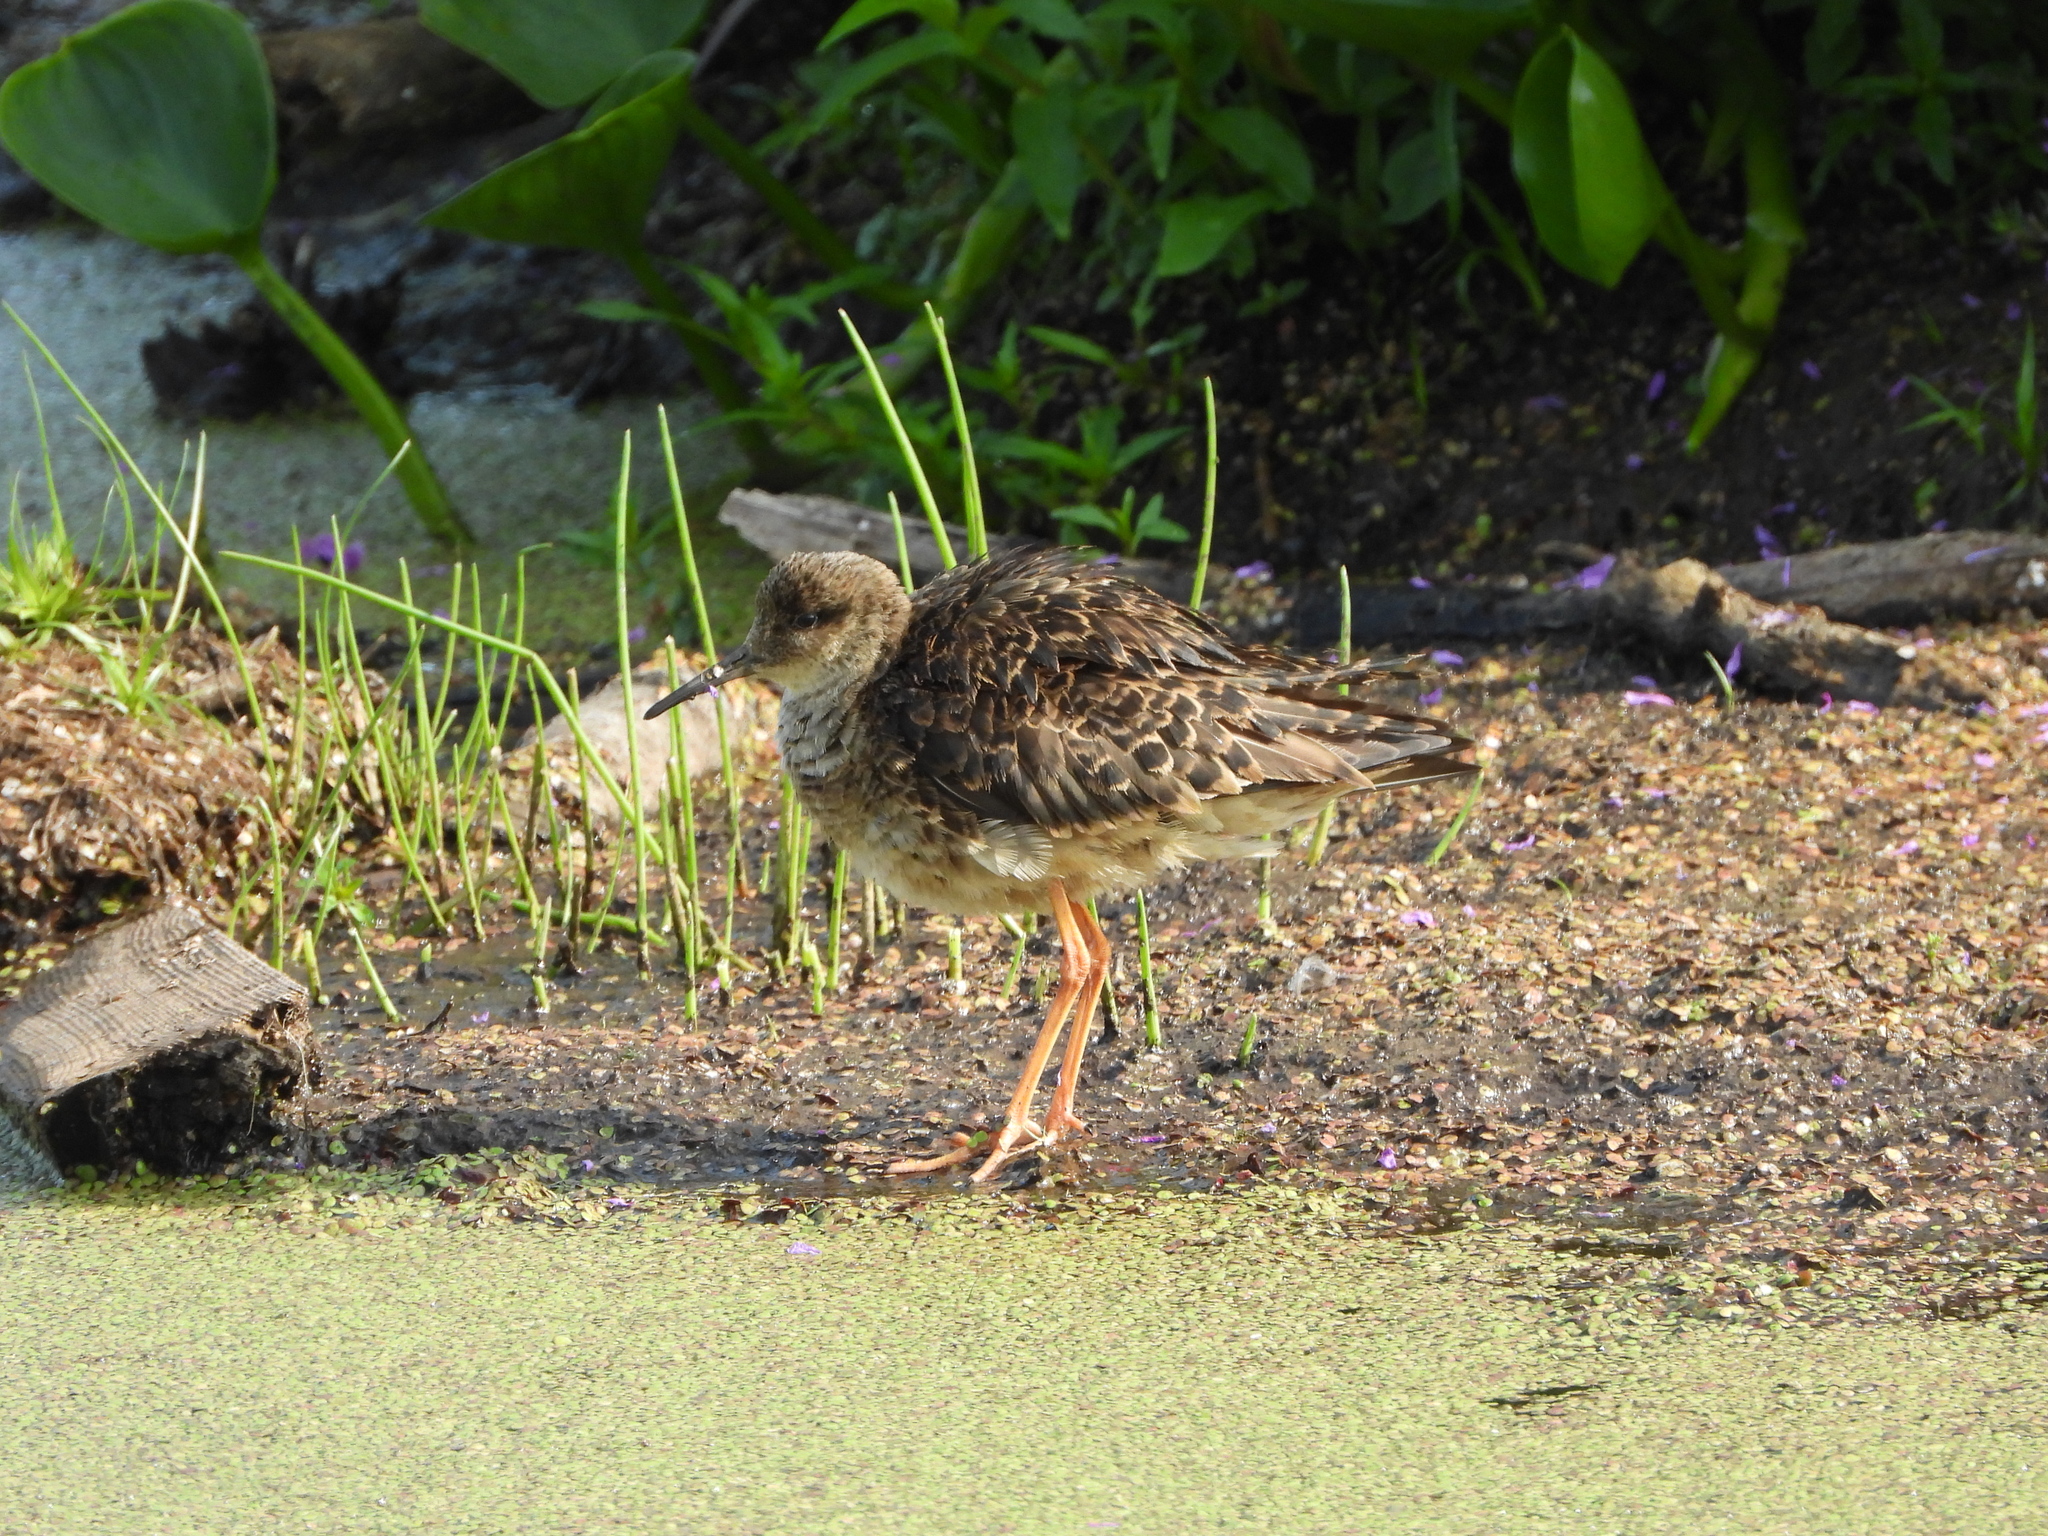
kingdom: Animalia
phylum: Chordata
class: Aves
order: Charadriiformes
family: Scolopacidae
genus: Calidris
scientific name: Calidris pugnax
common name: Ruff
